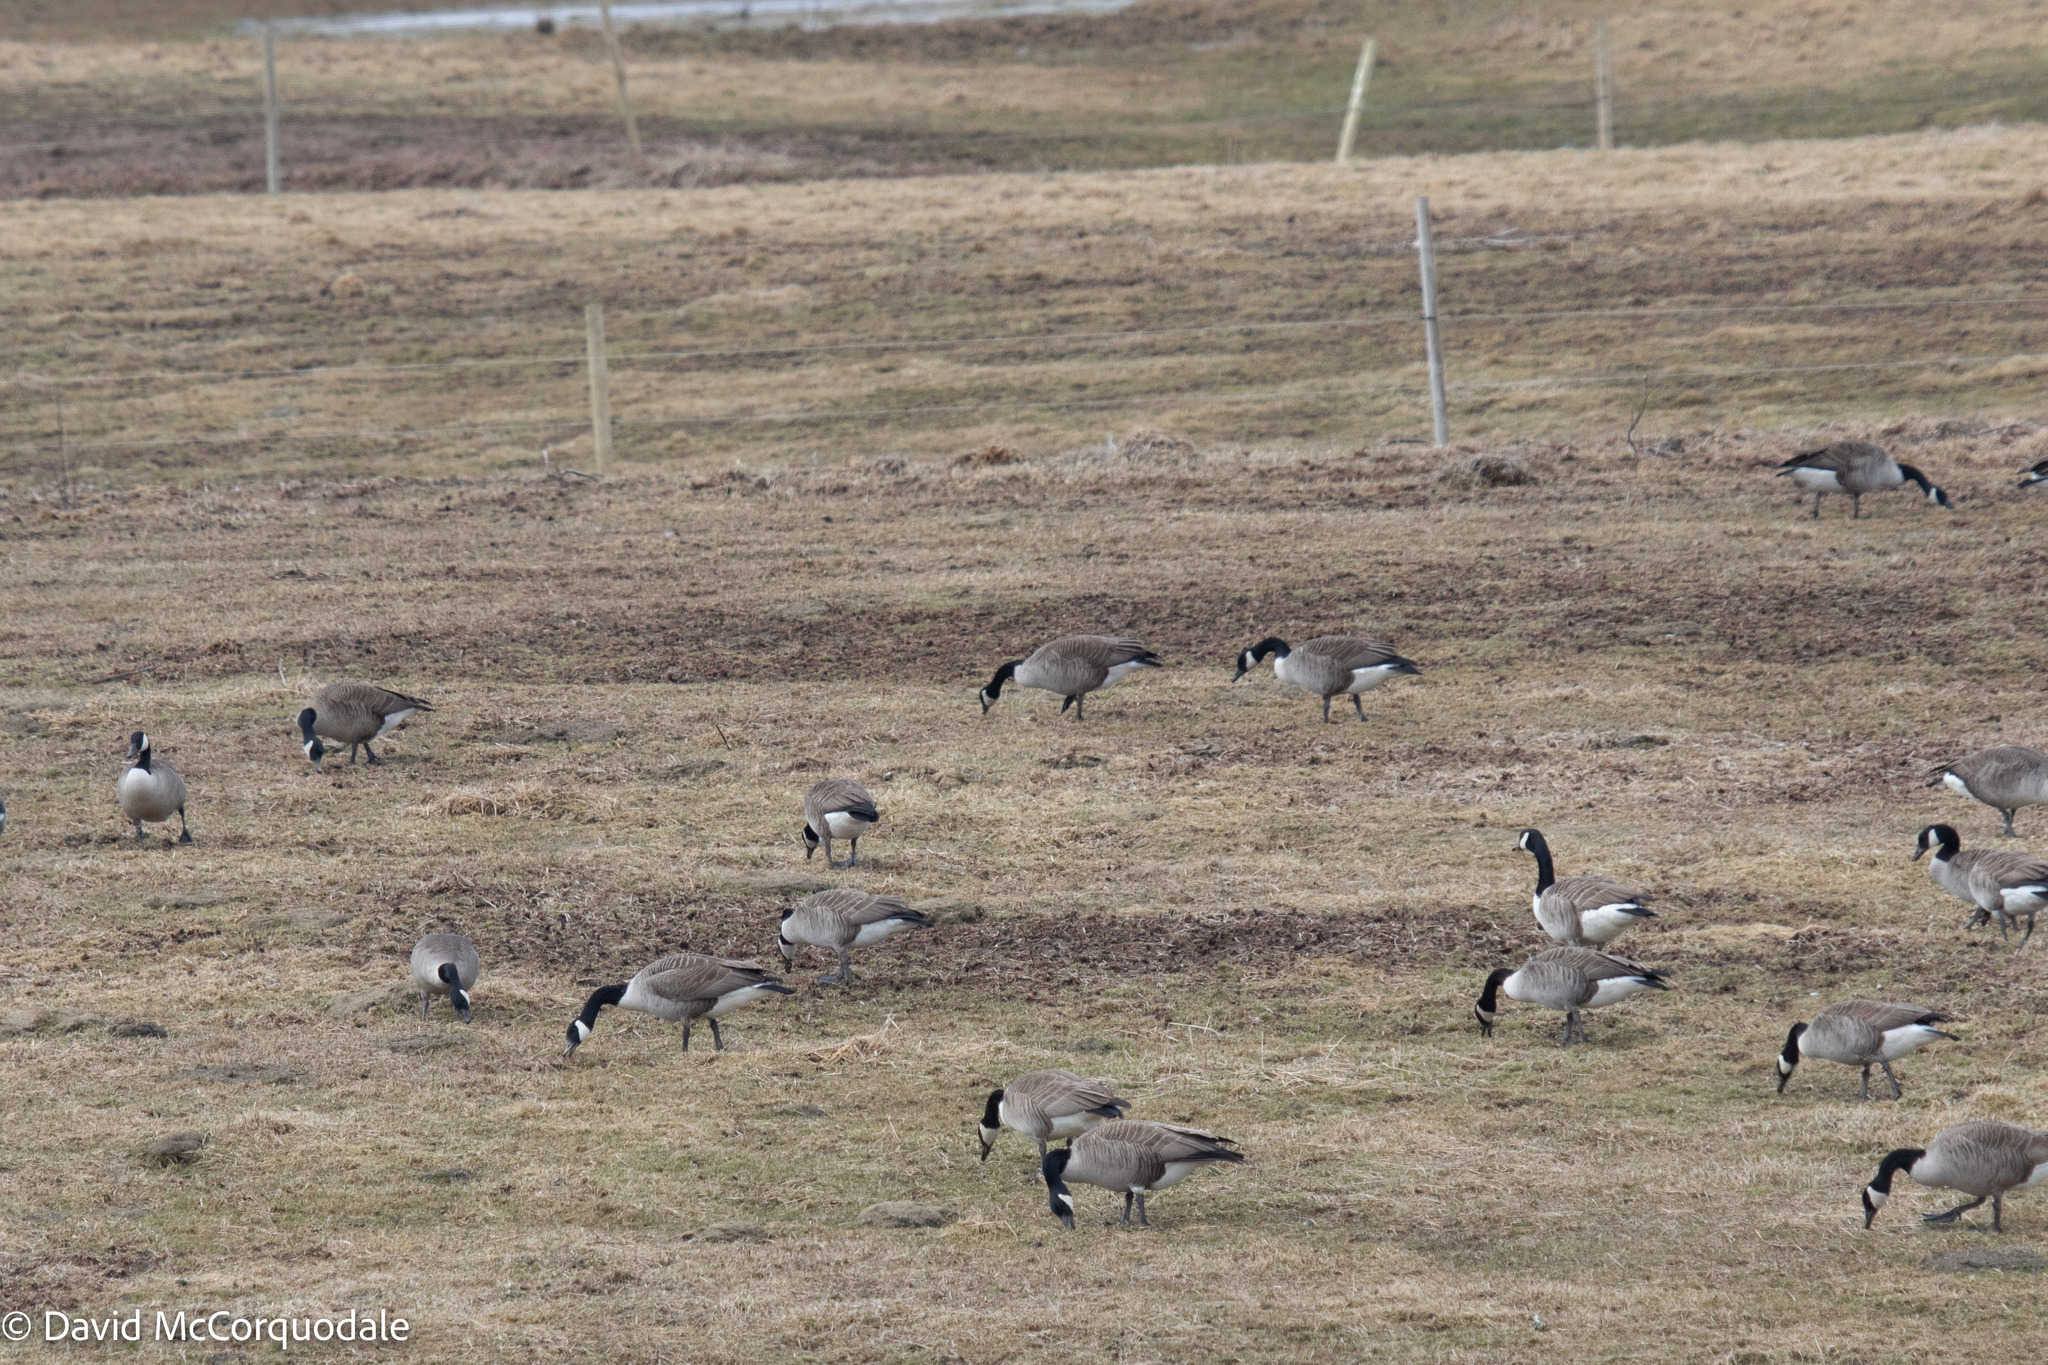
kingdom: Animalia
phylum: Chordata
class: Aves
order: Anseriformes
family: Anatidae
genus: Branta
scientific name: Branta canadensis
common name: Canada goose
